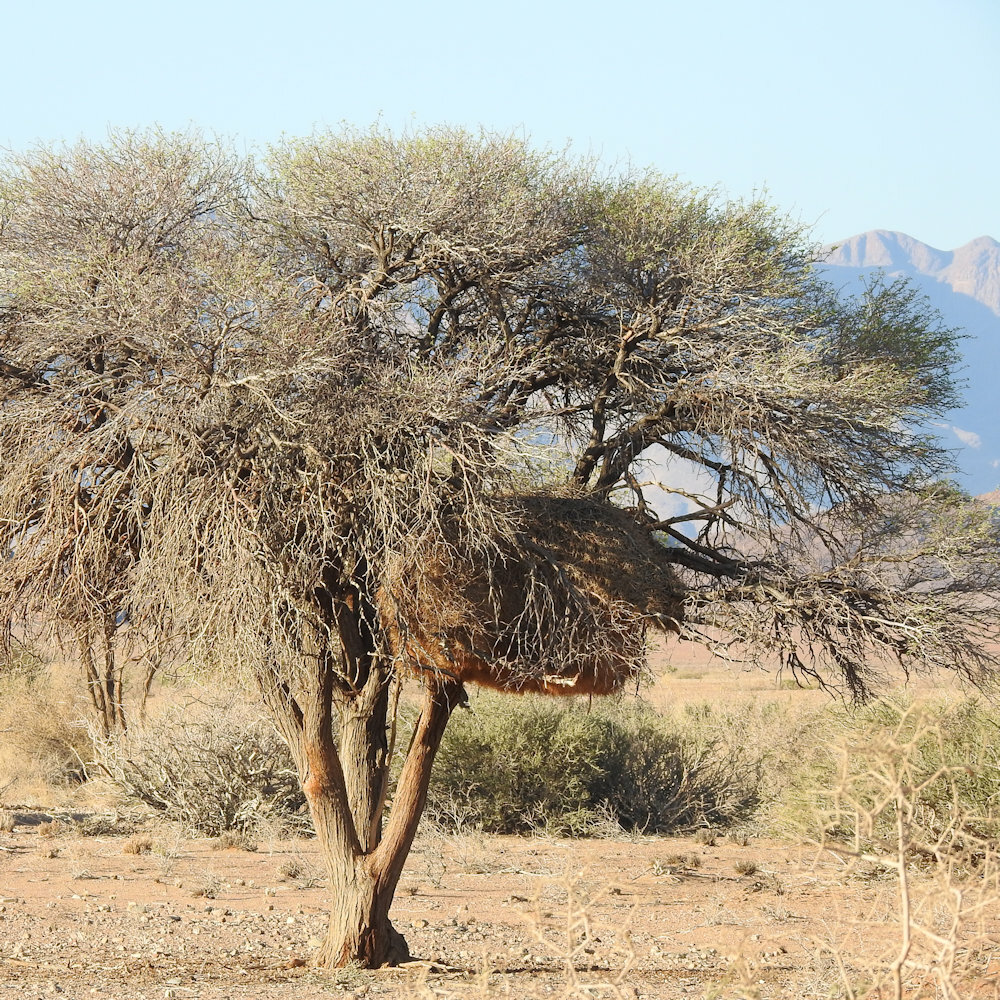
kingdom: Animalia
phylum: Chordata
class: Aves
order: Passeriformes
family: Passeridae
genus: Philetairus
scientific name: Philetairus socius
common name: Sociable weaver
